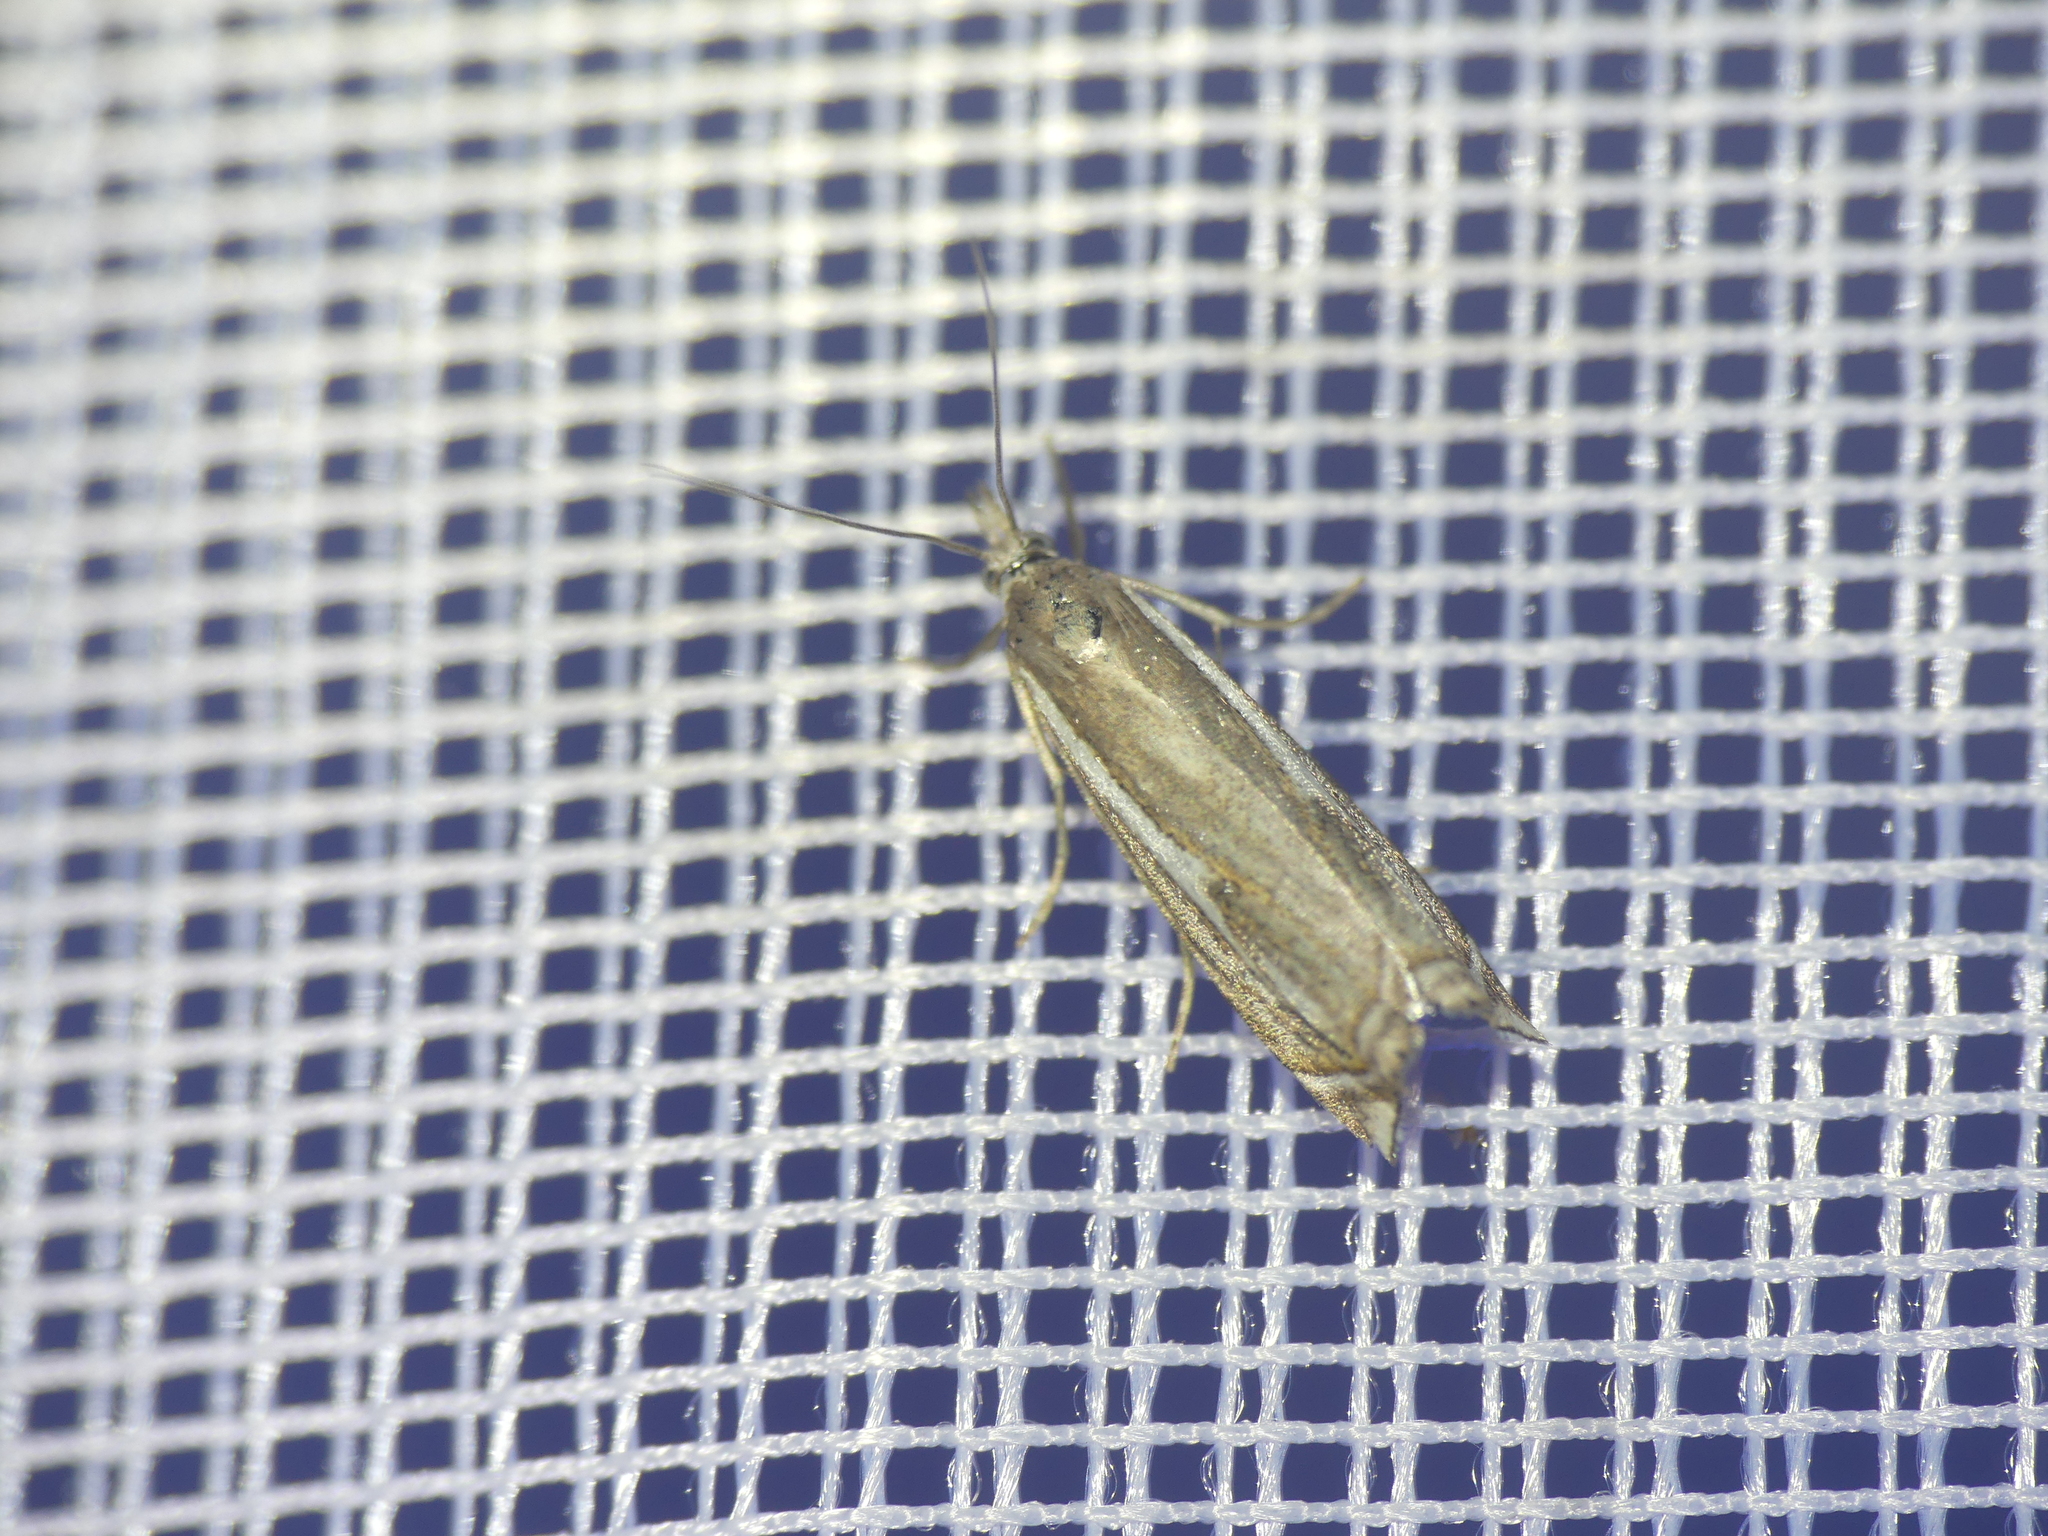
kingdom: Animalia
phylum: Arthropoda
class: Insecta
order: Lepidoptera
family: Crambidae
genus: Crambus
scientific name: Crambus nemorella
